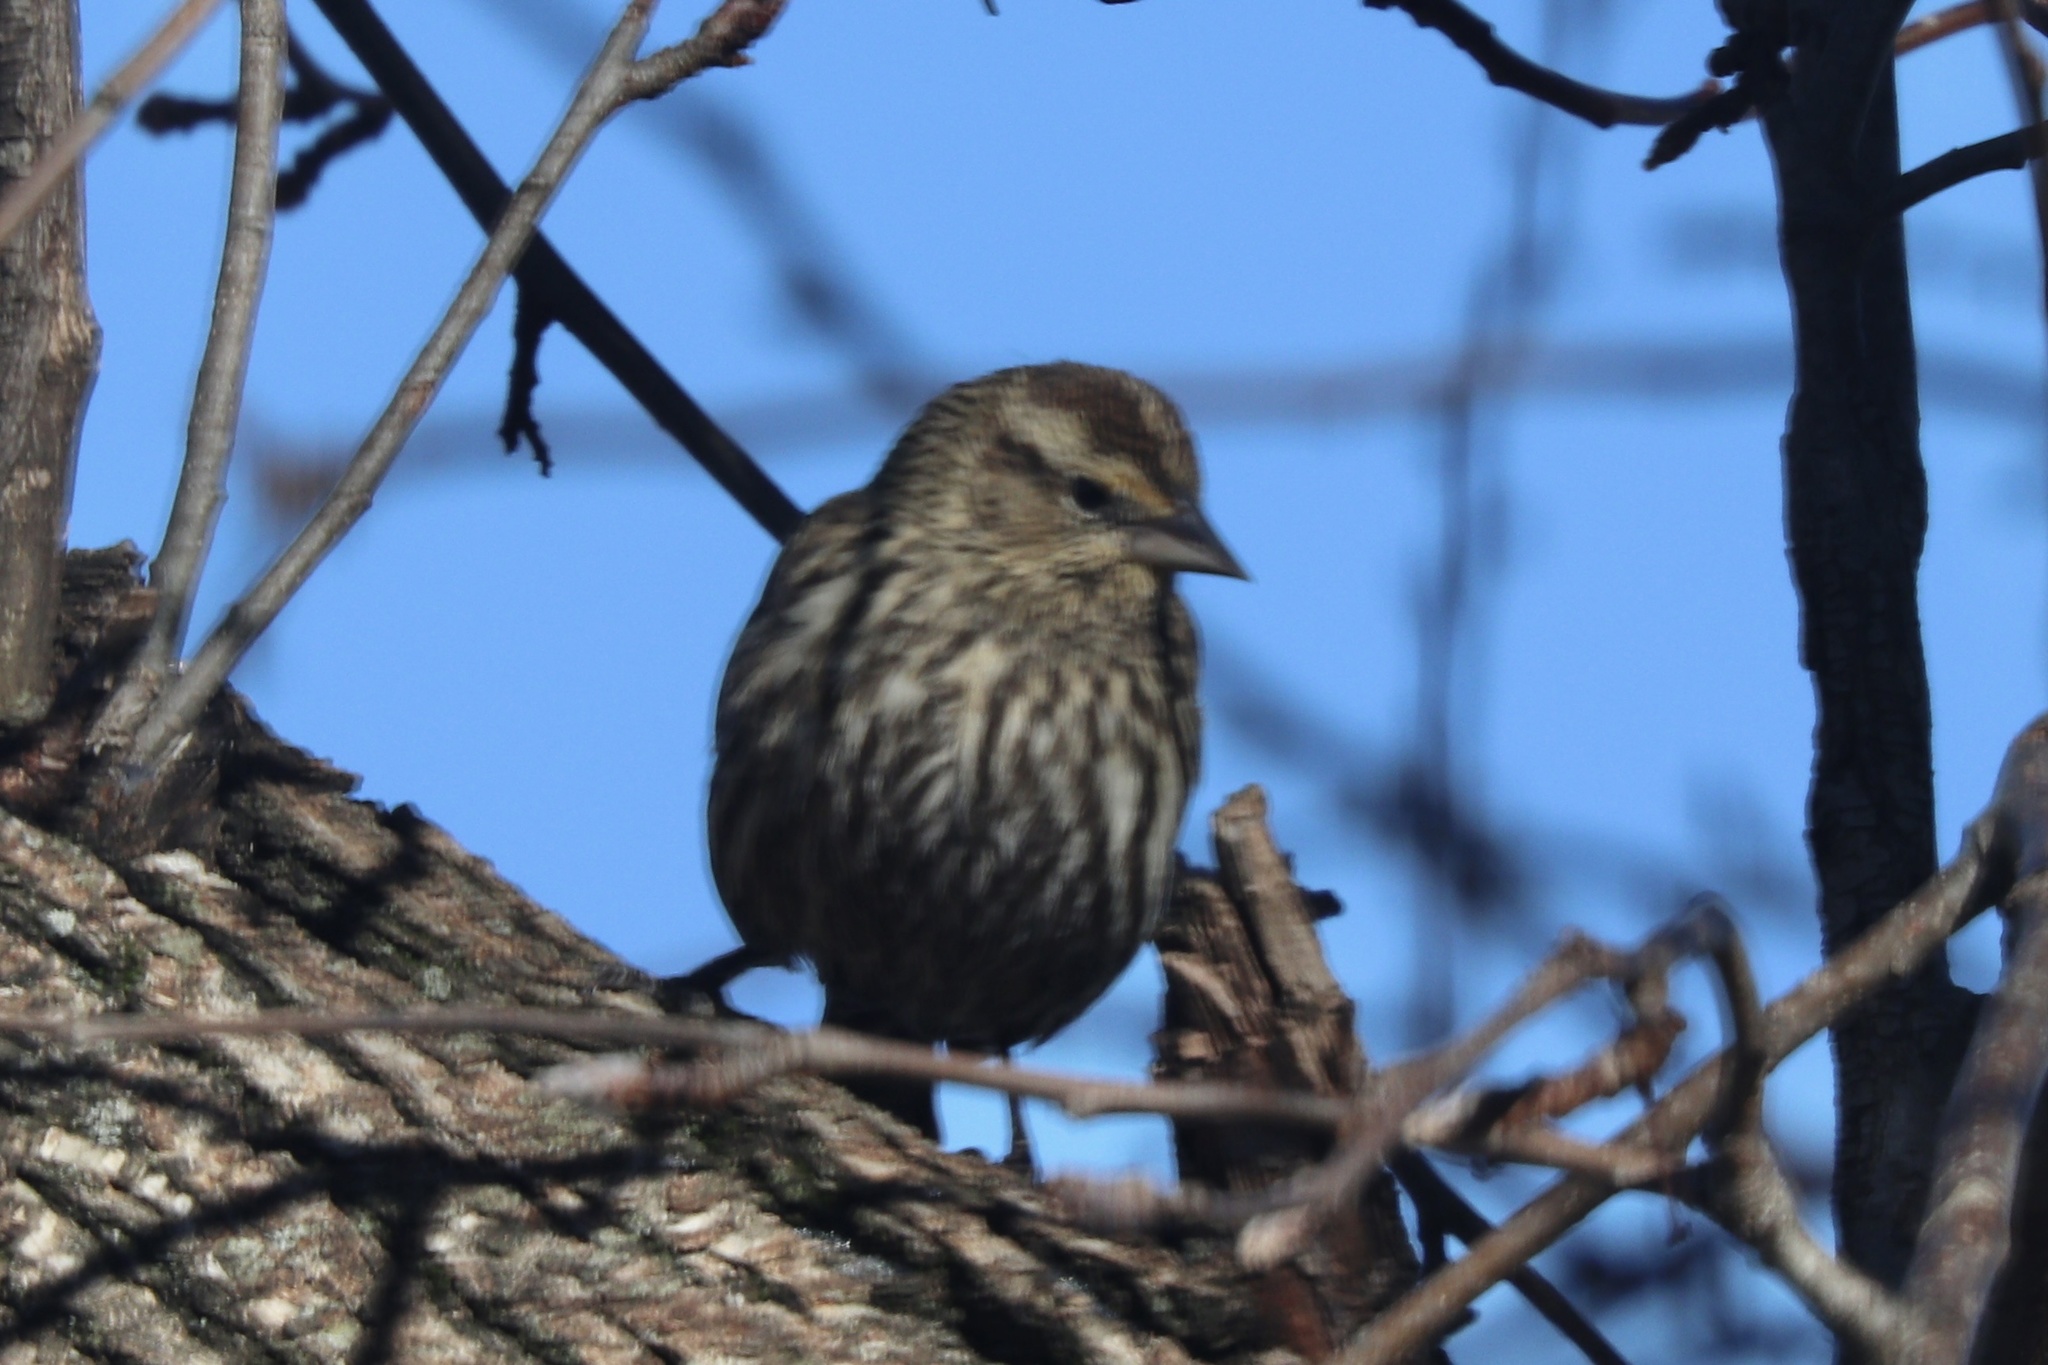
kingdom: Animalia
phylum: Chordata
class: Aves
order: Passeriformes
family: Icteridae
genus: Agelaius
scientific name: Agelaius phoeniceus
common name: Red-winged blackbird
